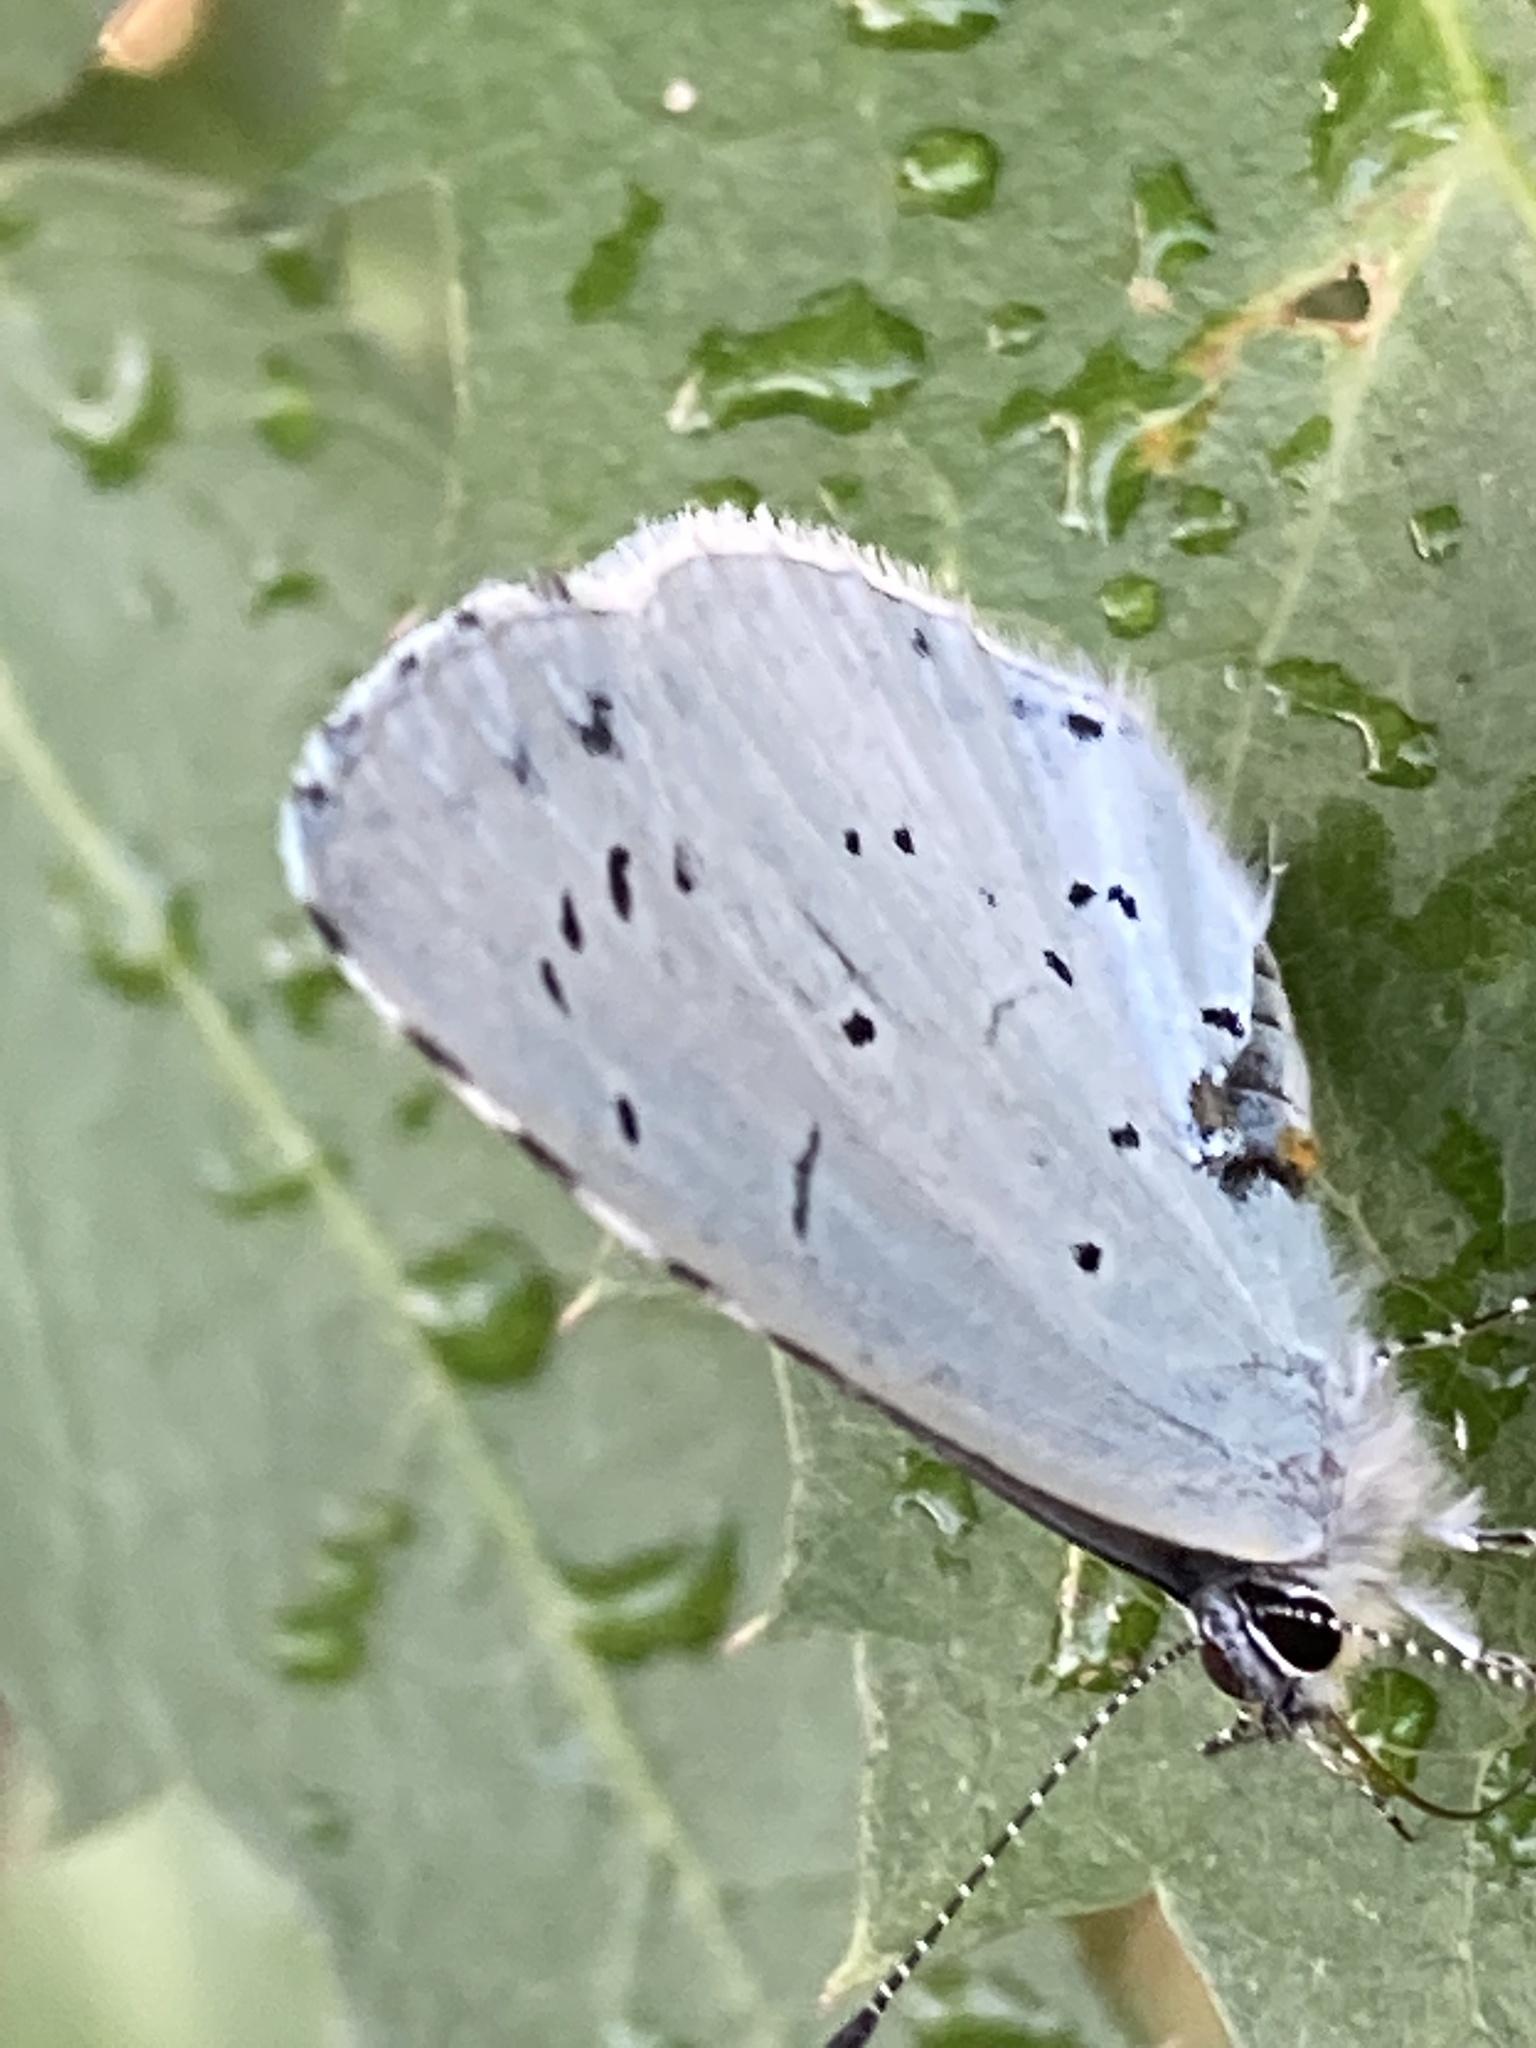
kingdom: Animalia
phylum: Arthropoda
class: Insecta
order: Lepidoptera
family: Lycaenidae
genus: Celastrina
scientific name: Celastrina argiolus
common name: Holly blue
